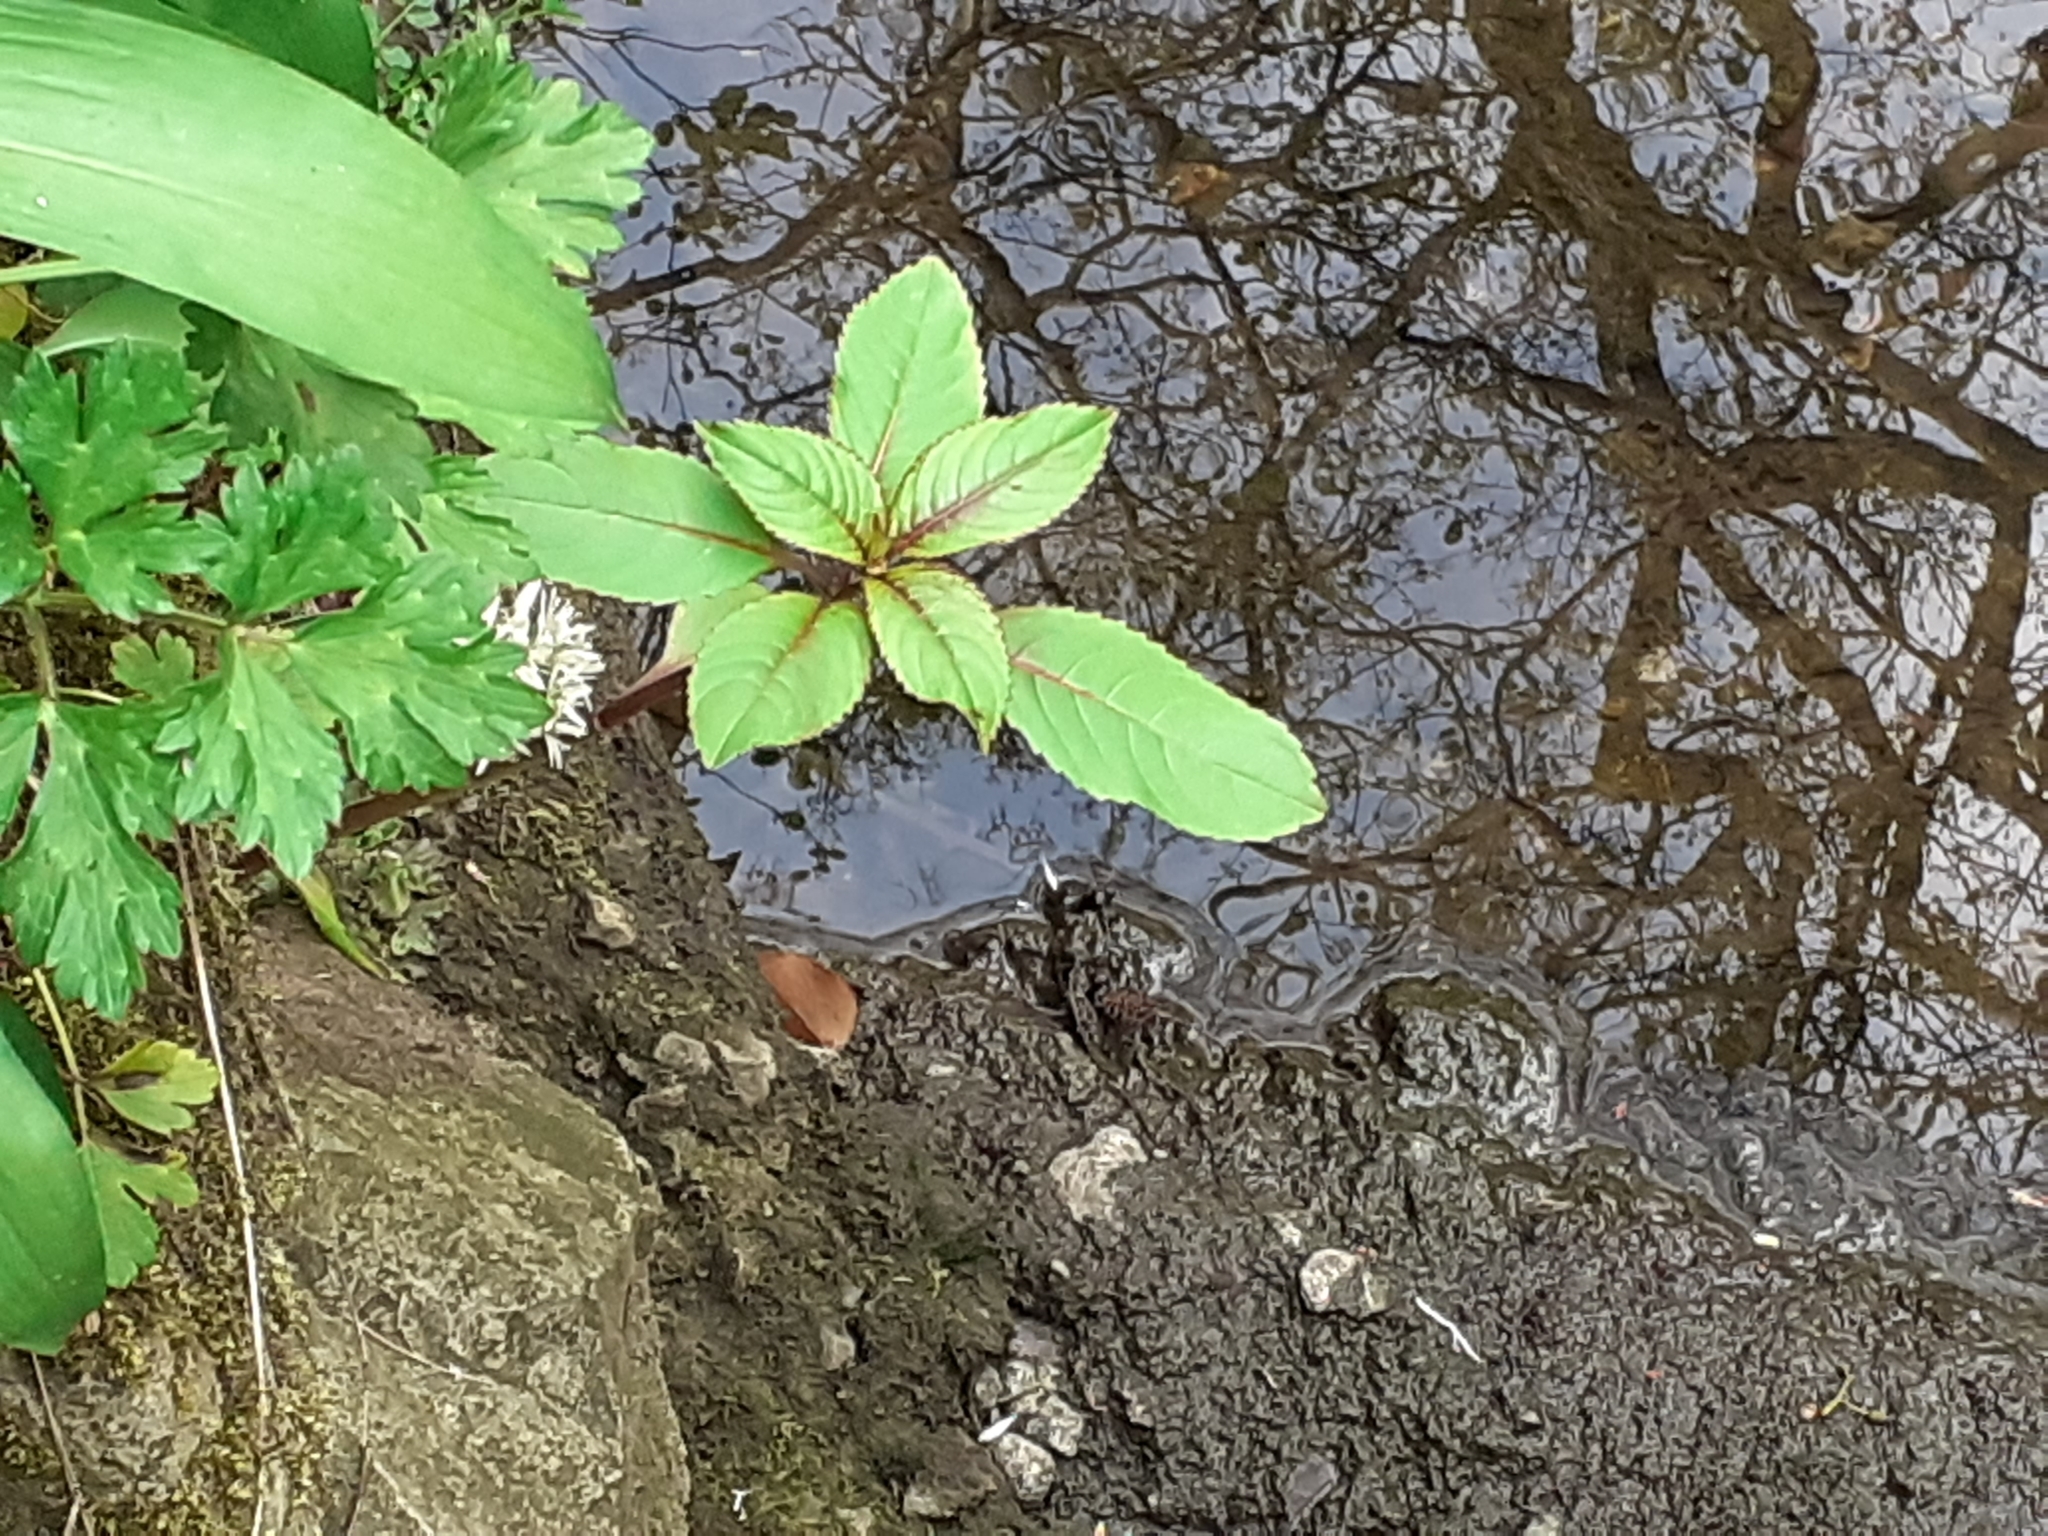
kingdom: Plantae
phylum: Tracheophyta
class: Magnoliopsida
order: Ericales
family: Balsaminaceae
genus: Impatiens
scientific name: Impatiens glandulifera
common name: Himalayan balsam
